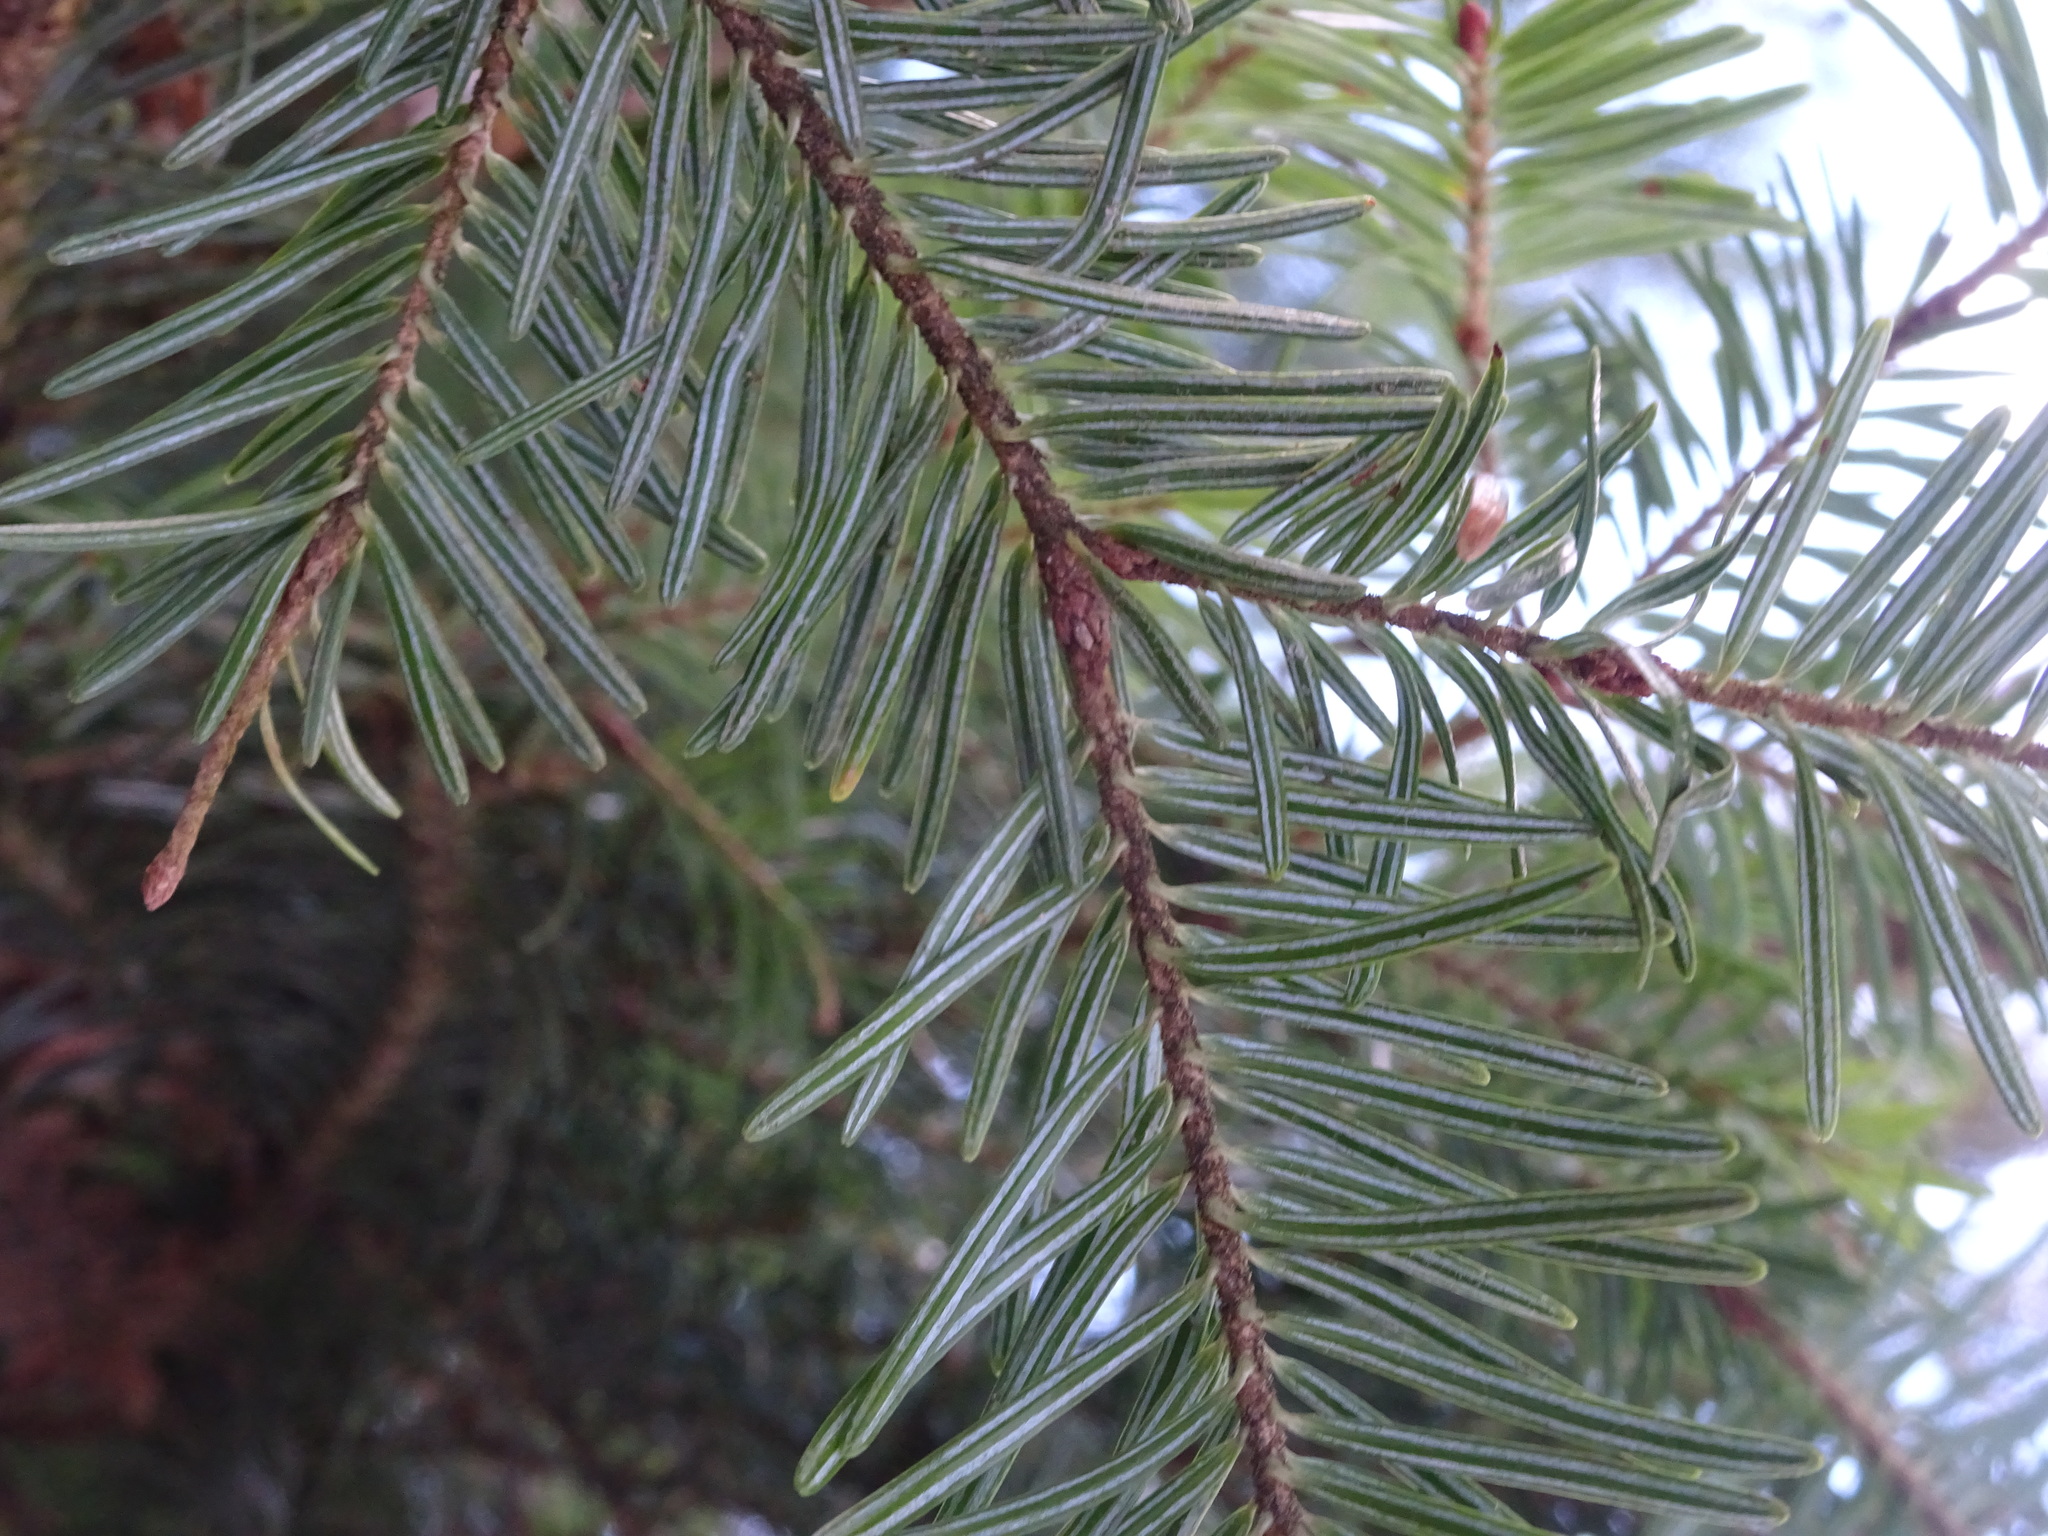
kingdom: Plantae
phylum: Tracheophyta
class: Pinopsida
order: Pinales
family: Pinaceae
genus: Abies
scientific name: Abies alba
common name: Silver fir
